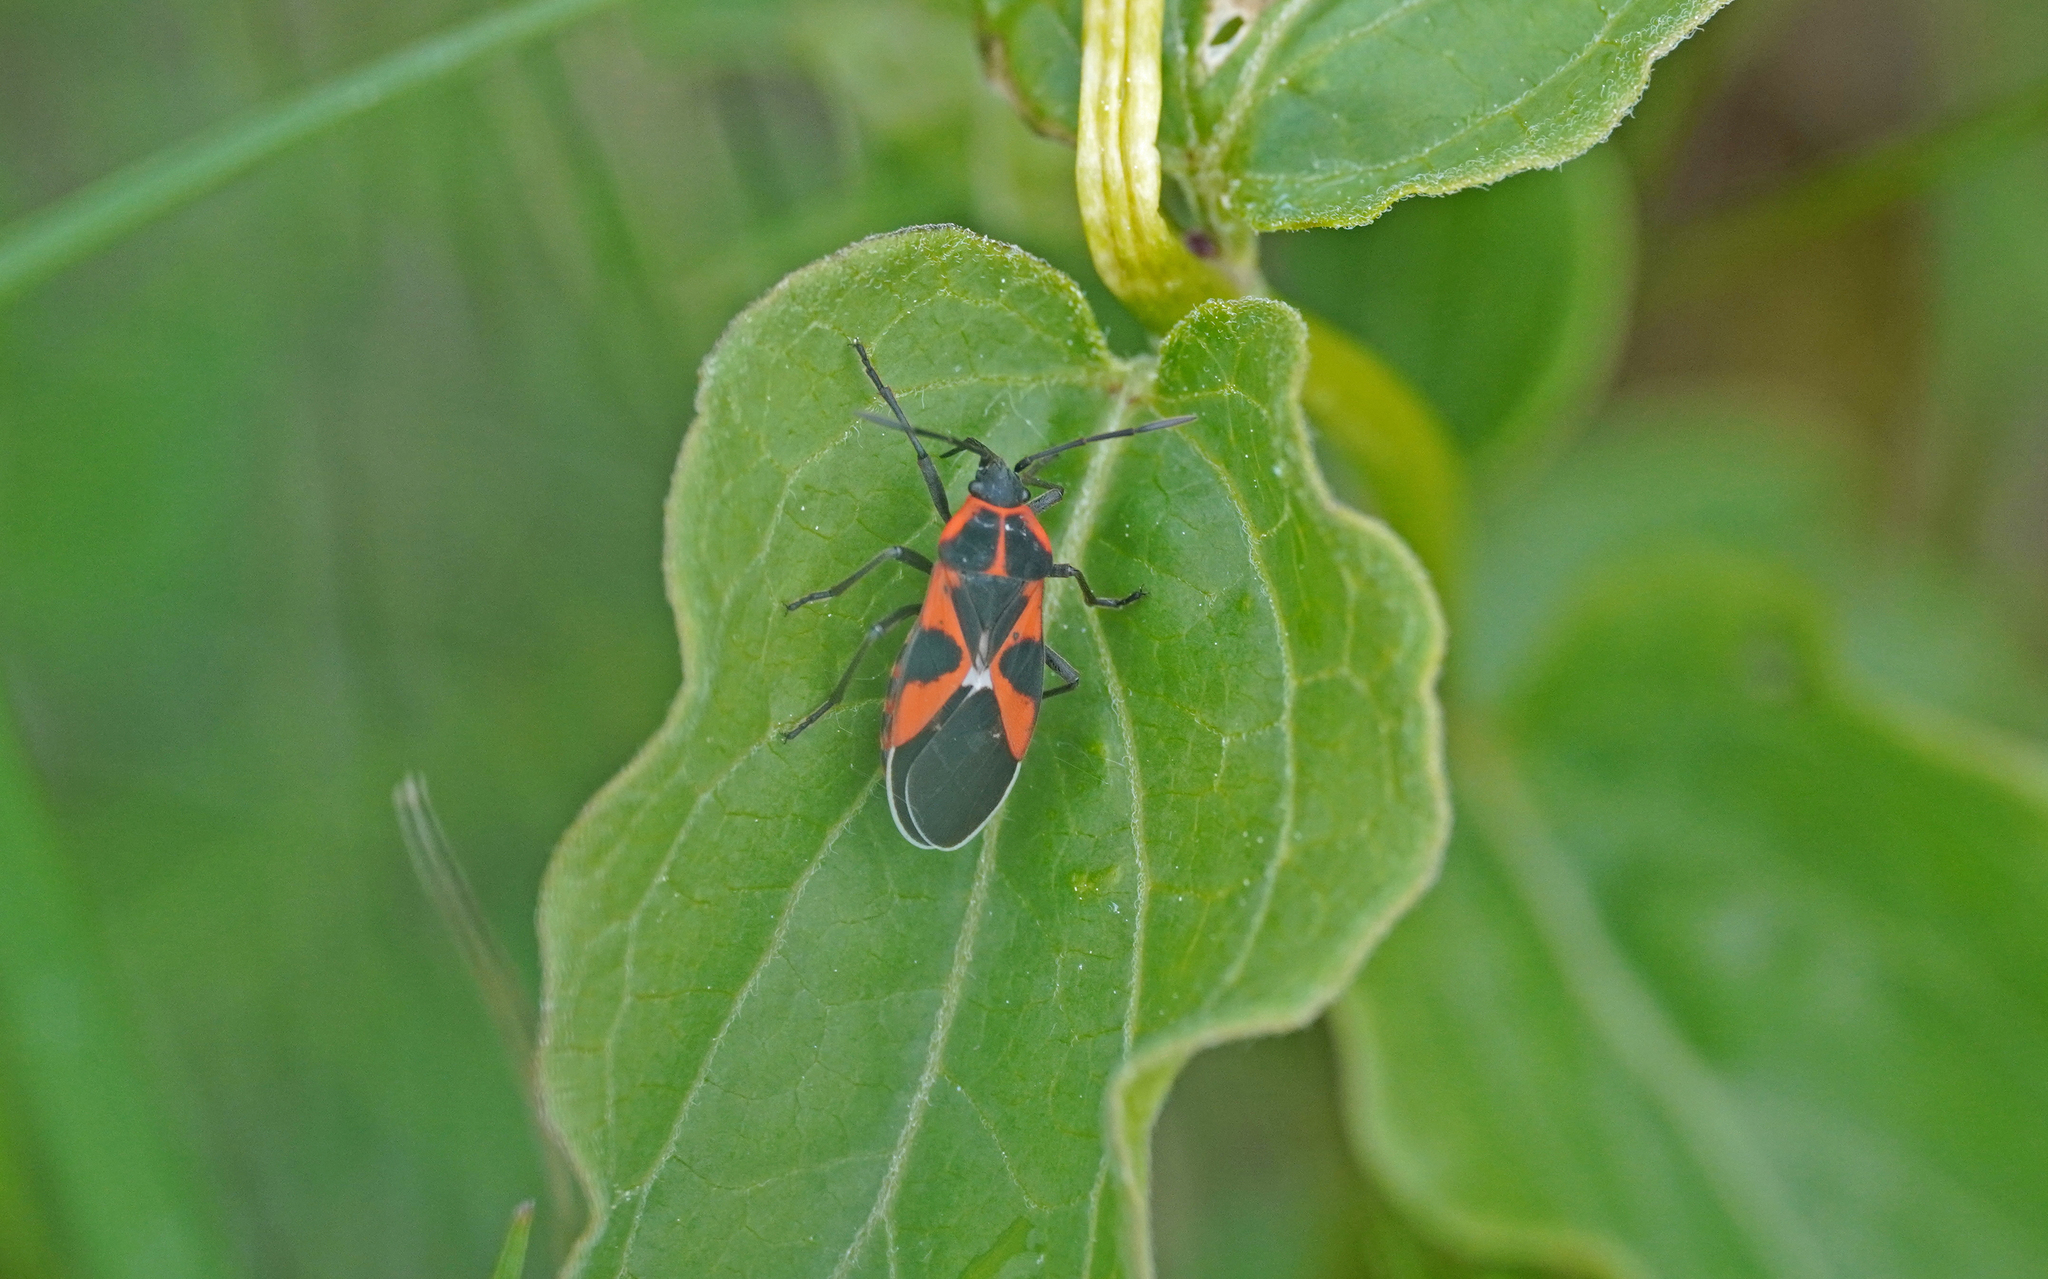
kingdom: Animalia
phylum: Arthropoda
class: Insecta
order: Hemiptera
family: Lygaeidae
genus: Tropidothorax
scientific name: Tropidothorax leucopterus
